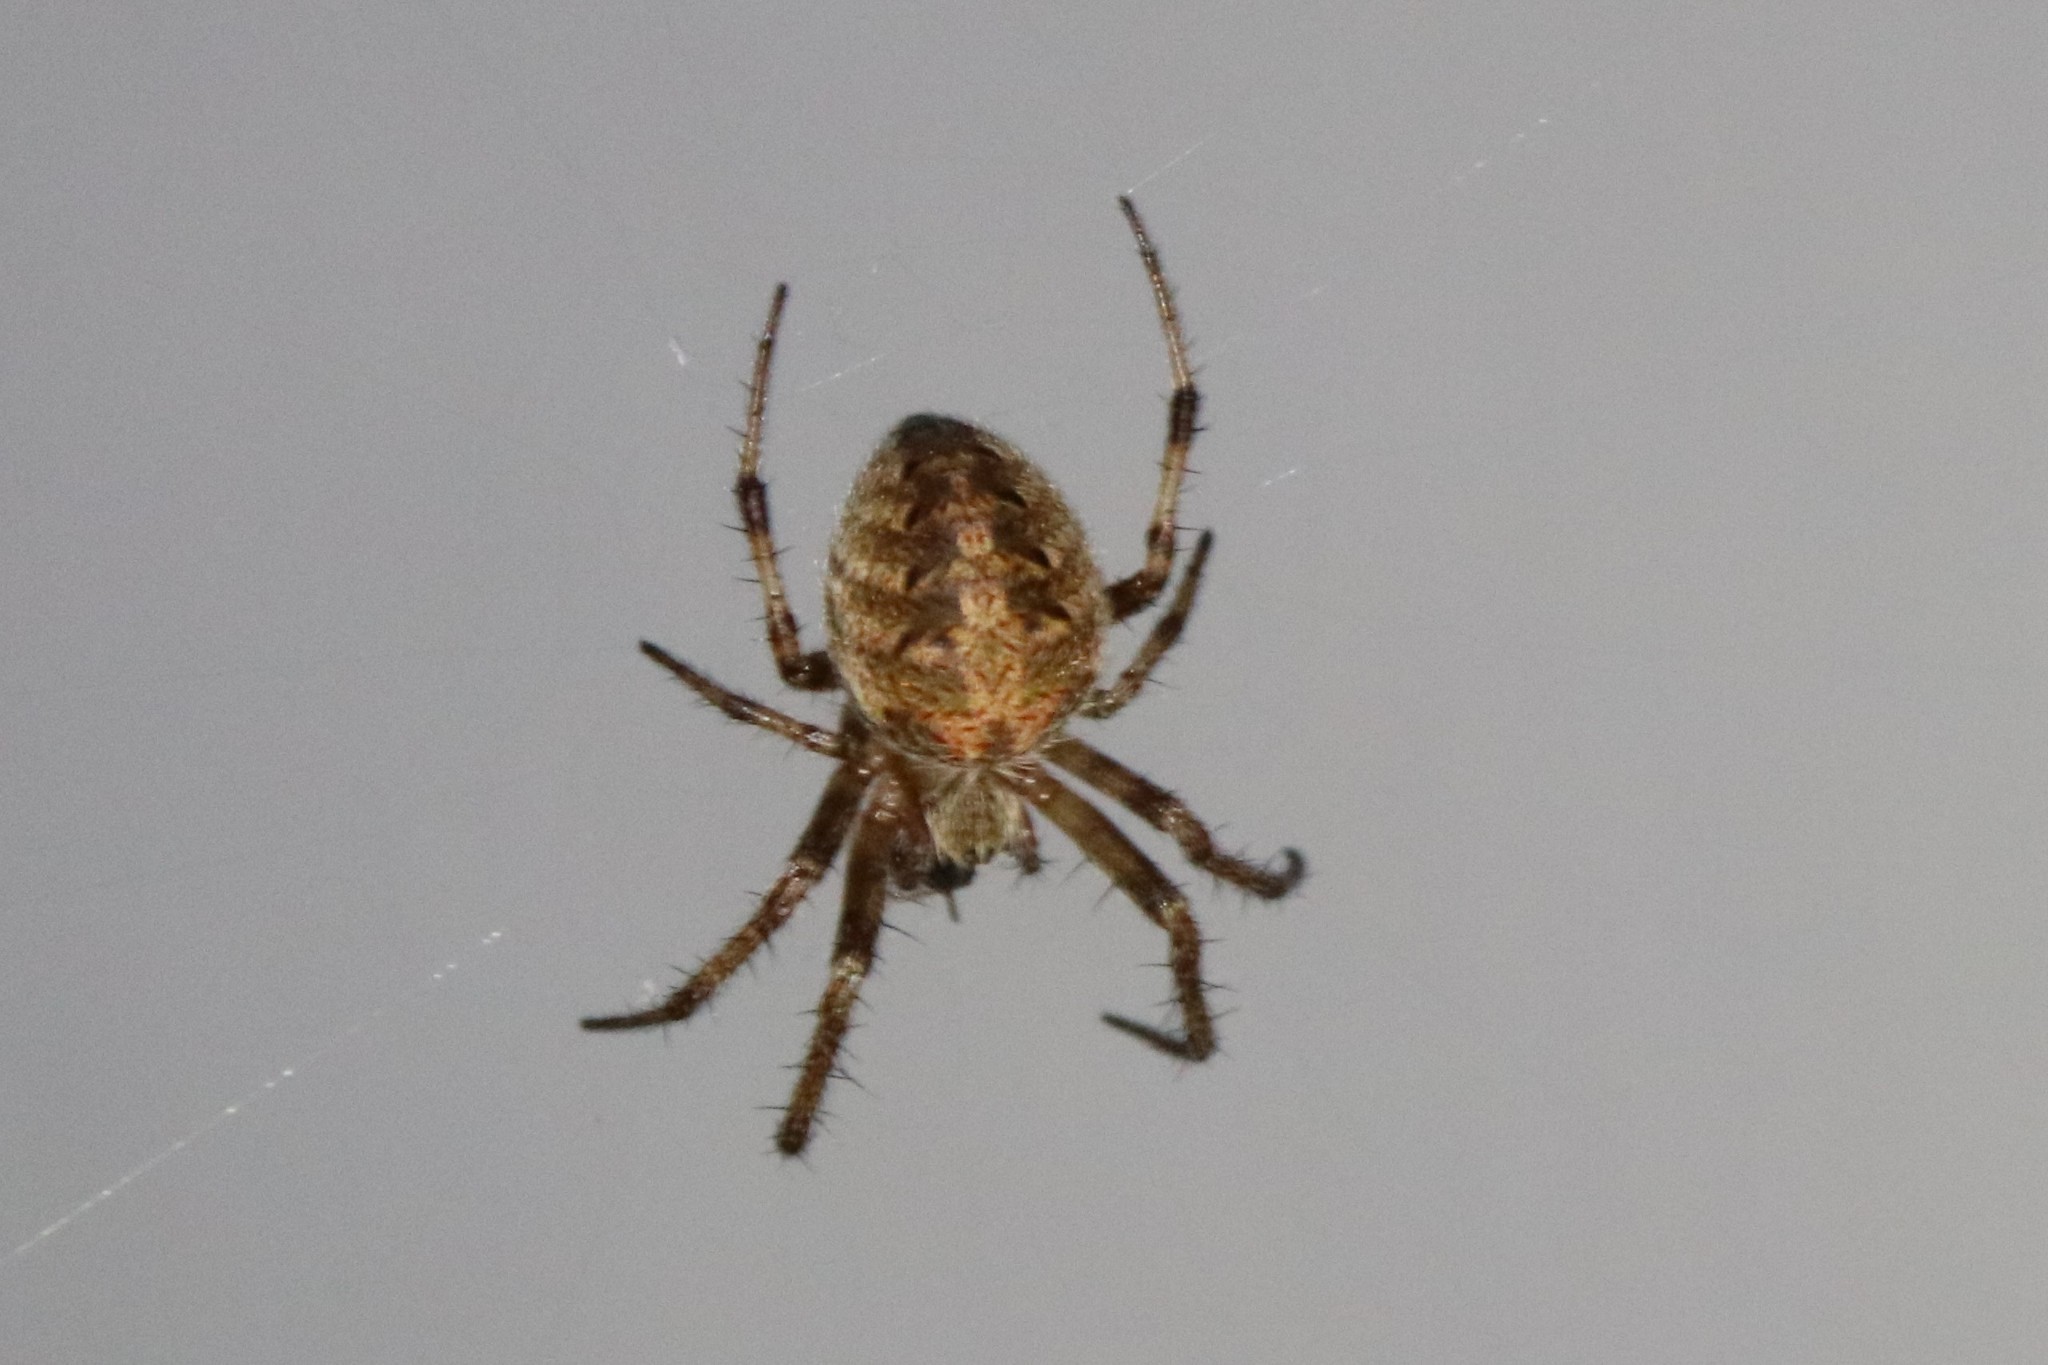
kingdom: Animalia
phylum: Arthropoda
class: Arachnida
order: Araneae
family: Araneidae
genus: Neoscona
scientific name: Neoscona arabesca
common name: Orb weavers
